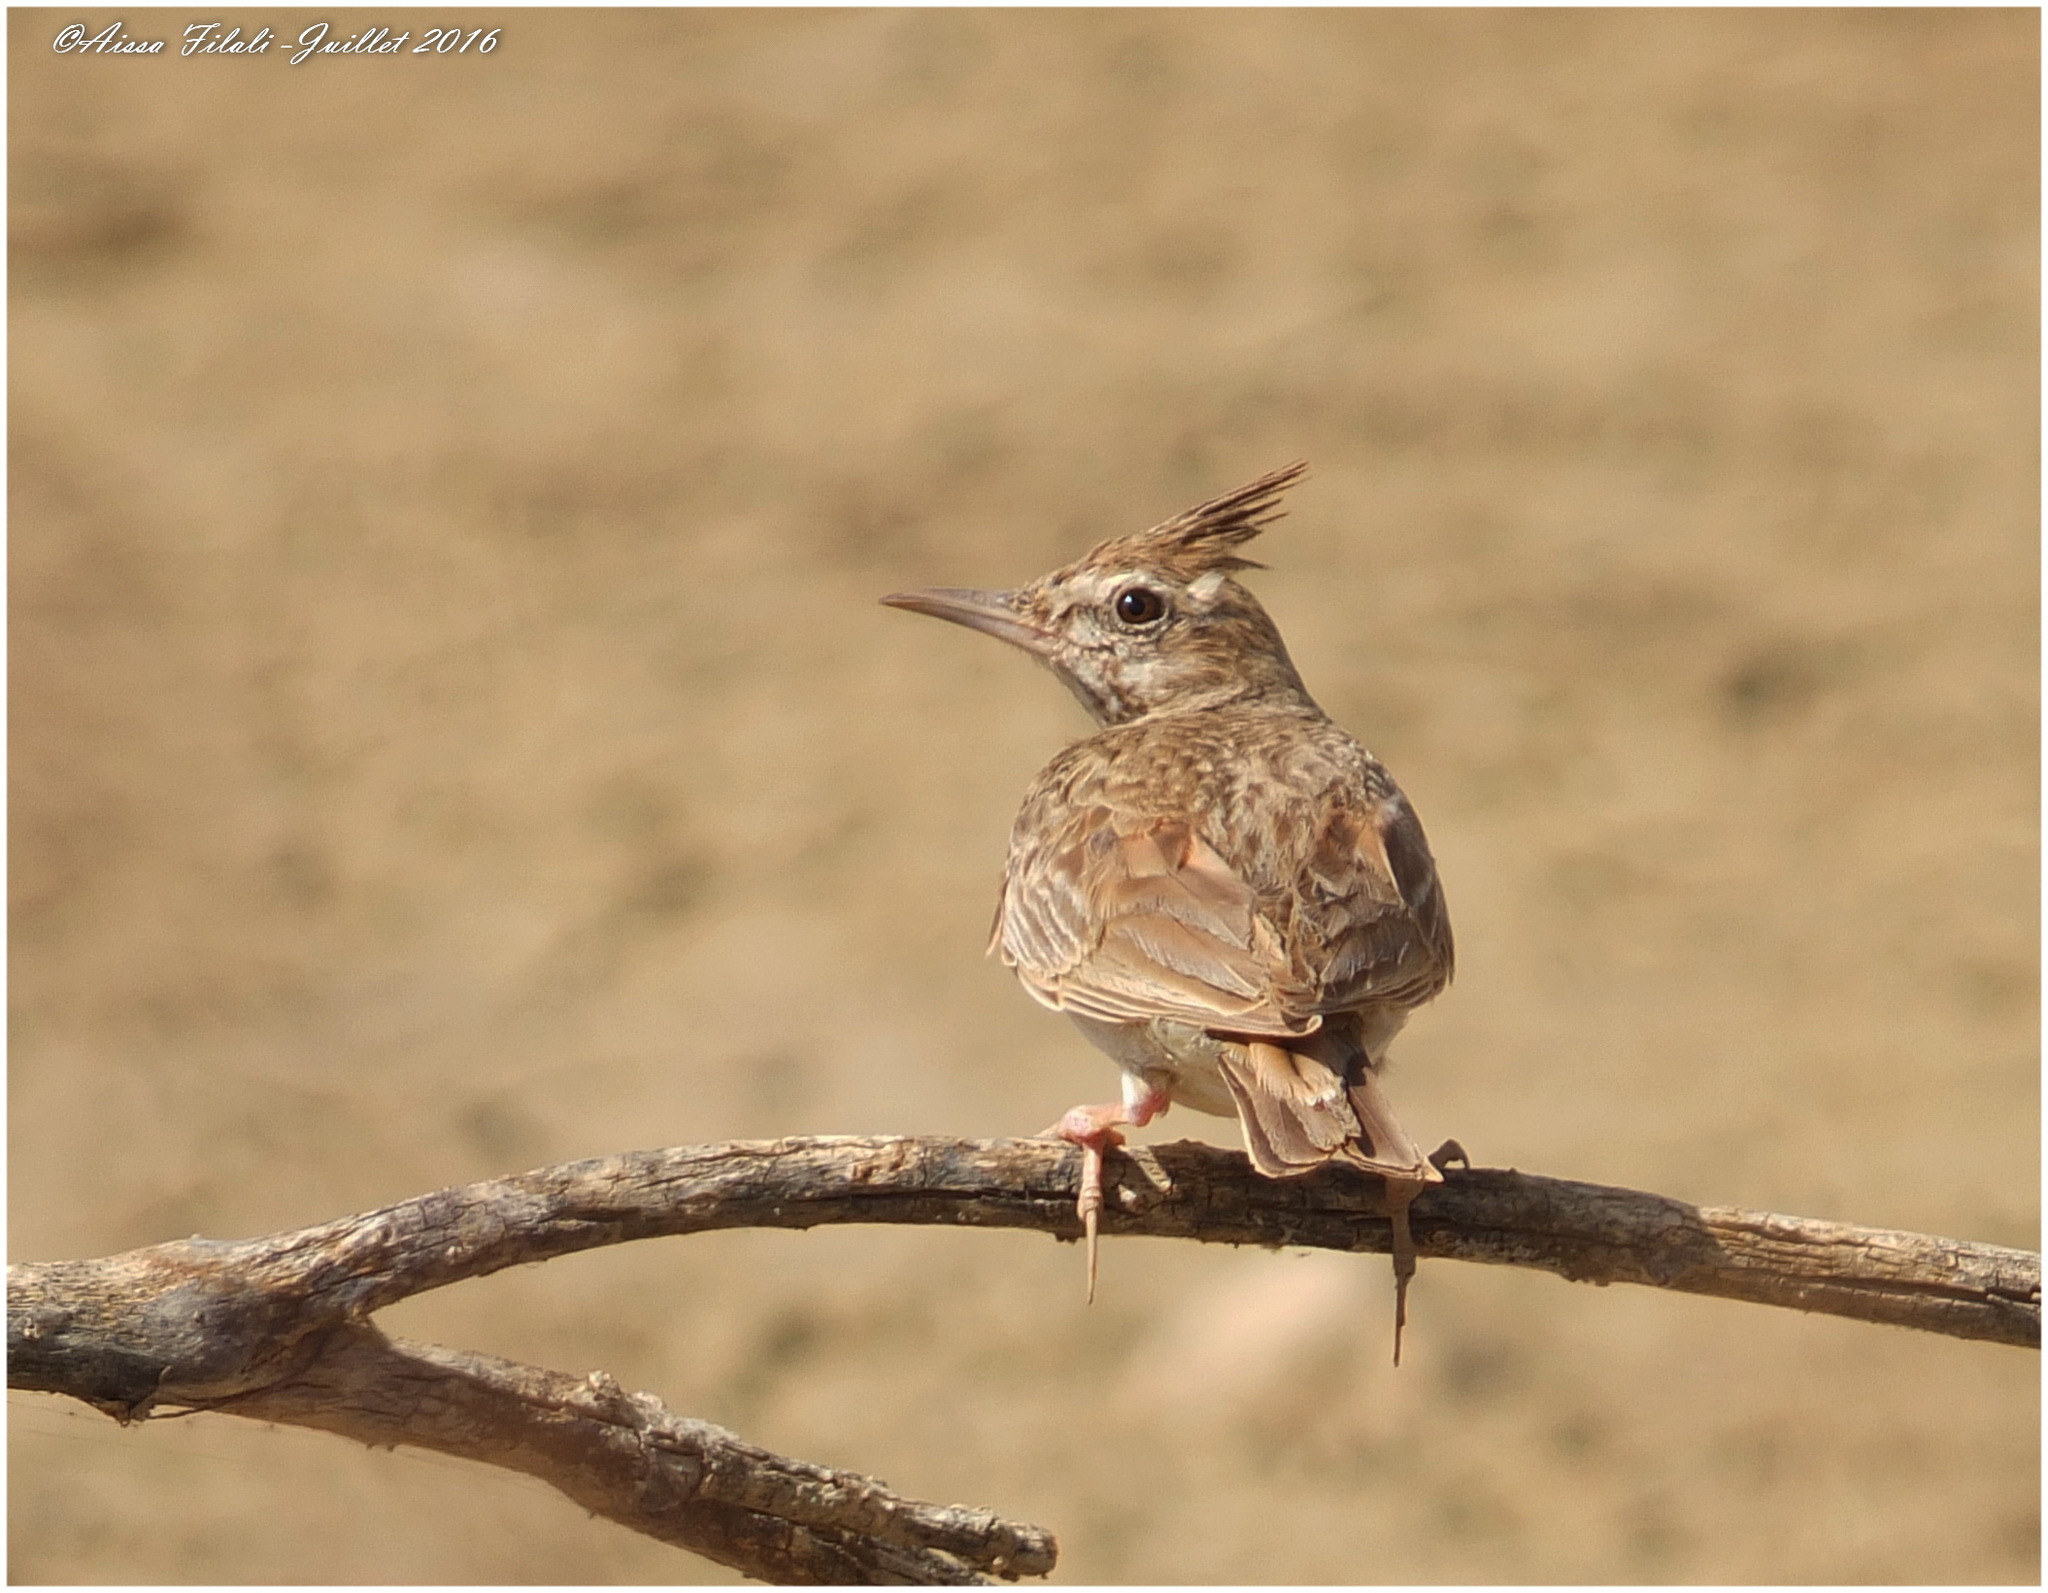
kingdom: Animalia
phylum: Chordata
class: Aves
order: Passeriformes
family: Alaudidae
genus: Galerida
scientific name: Galerida cristata
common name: Crested lark
